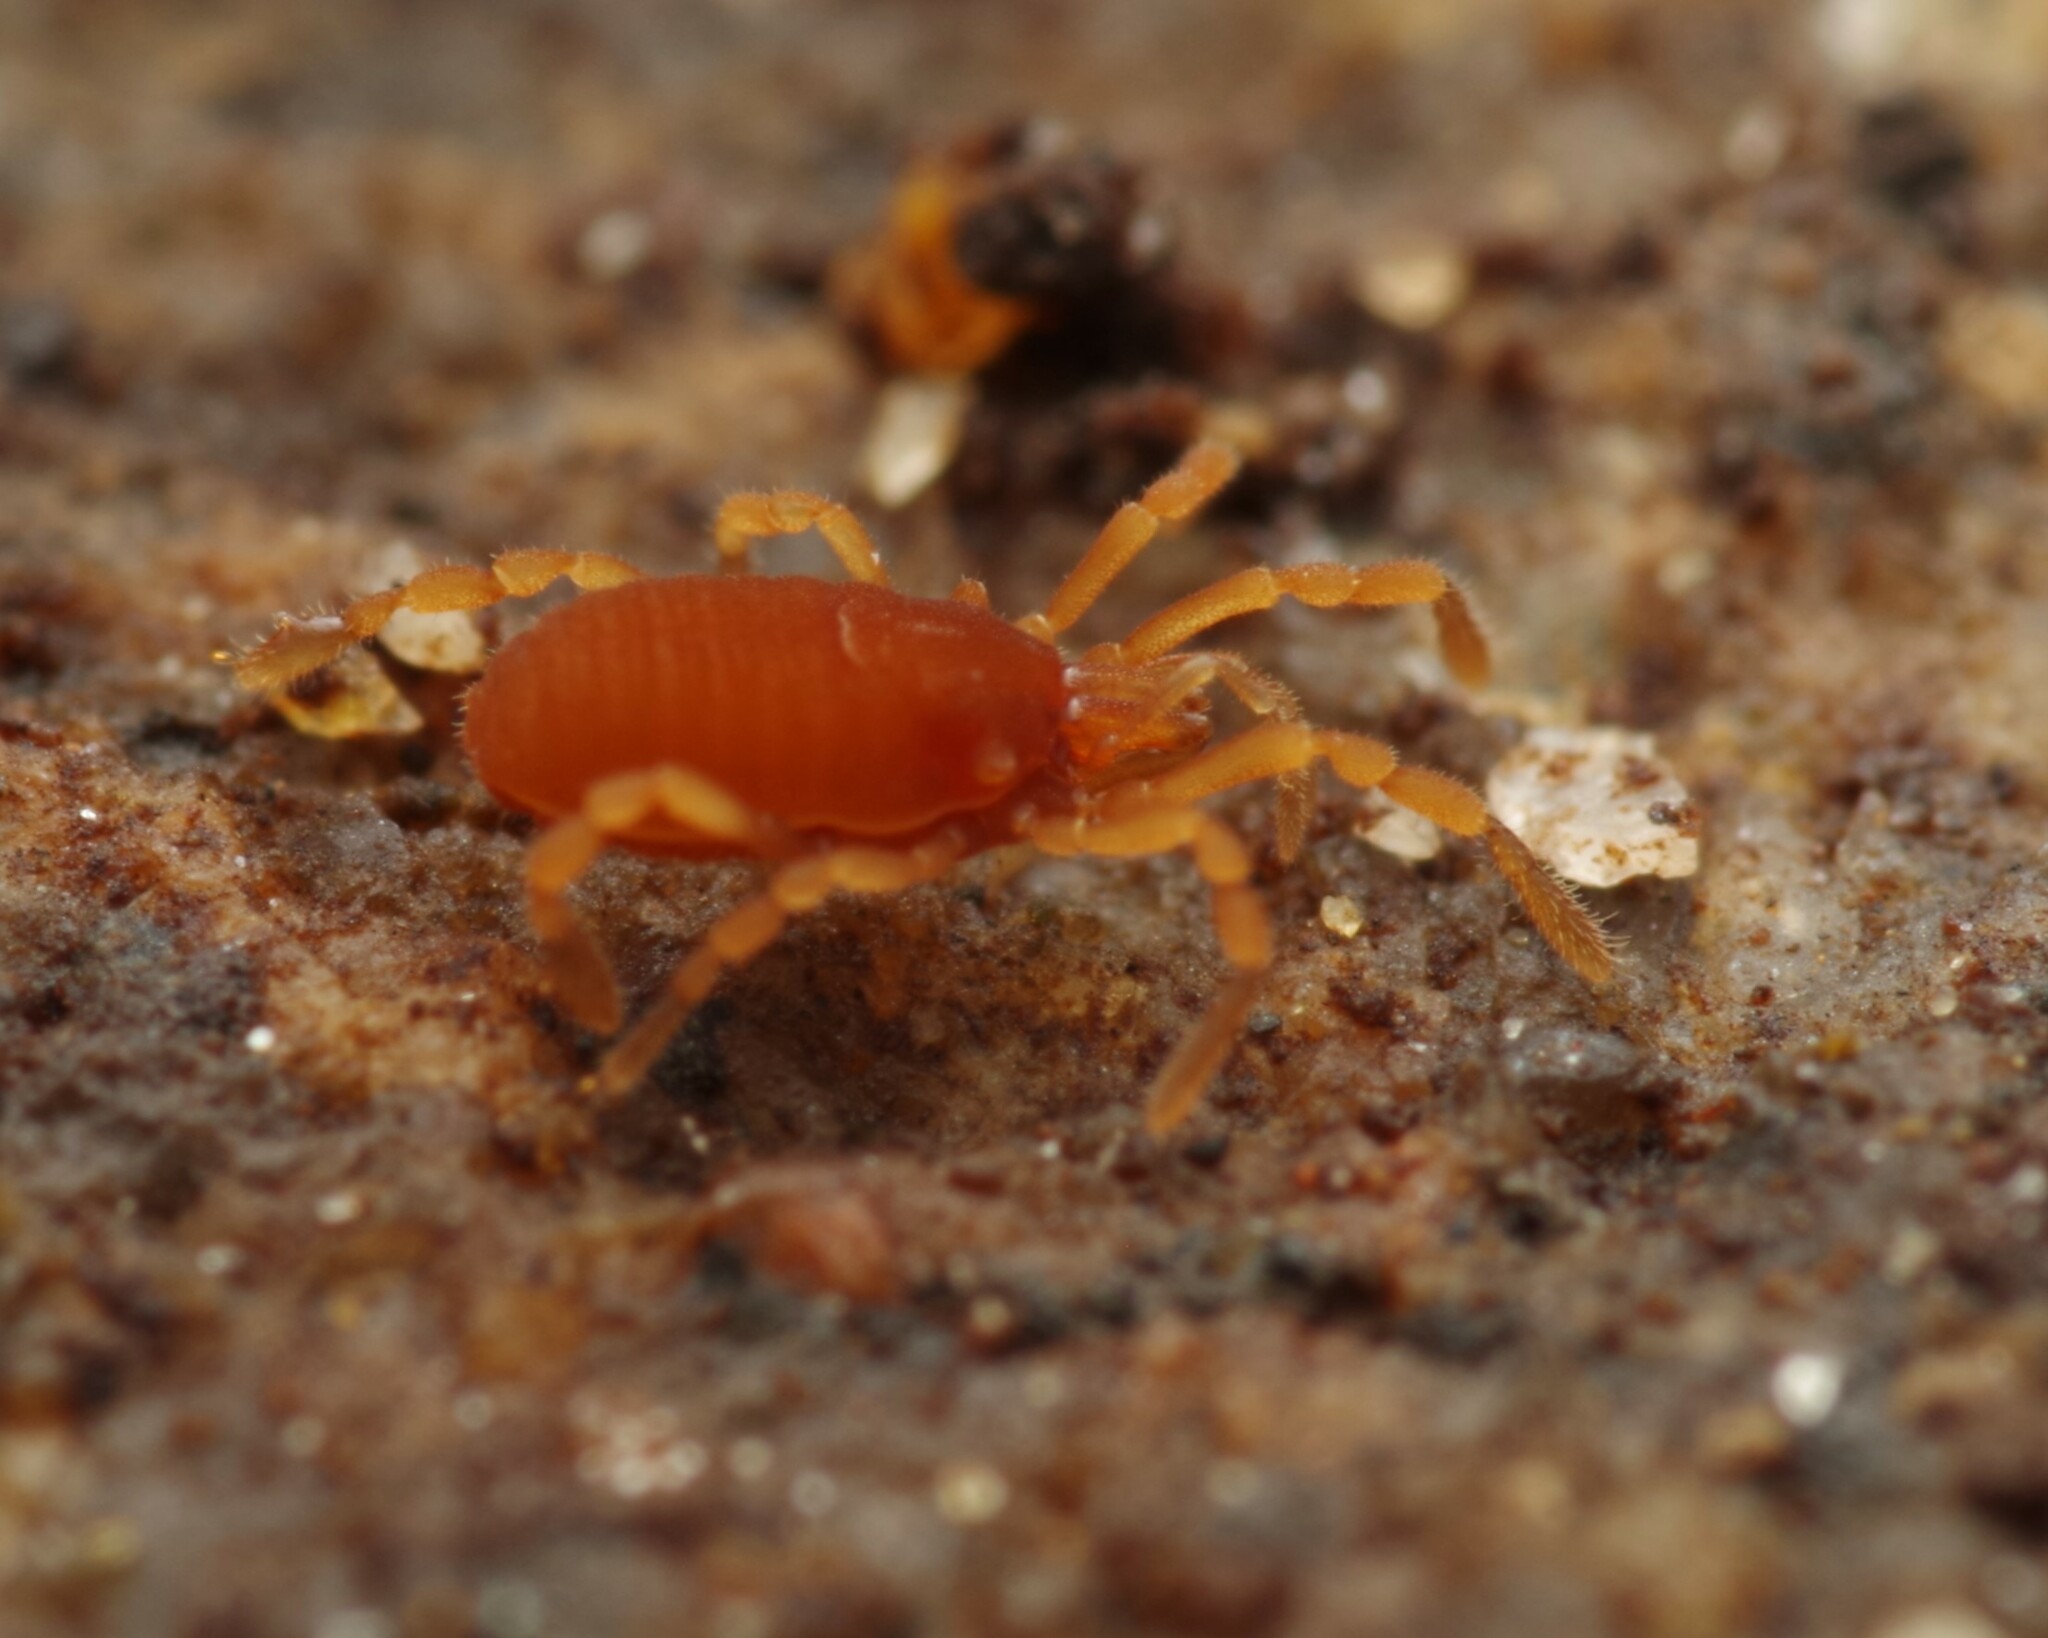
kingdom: Animalia
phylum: Arthropoda
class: Arachnida
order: Opiliones
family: Sironidae
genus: Siro
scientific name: Siro rubens
